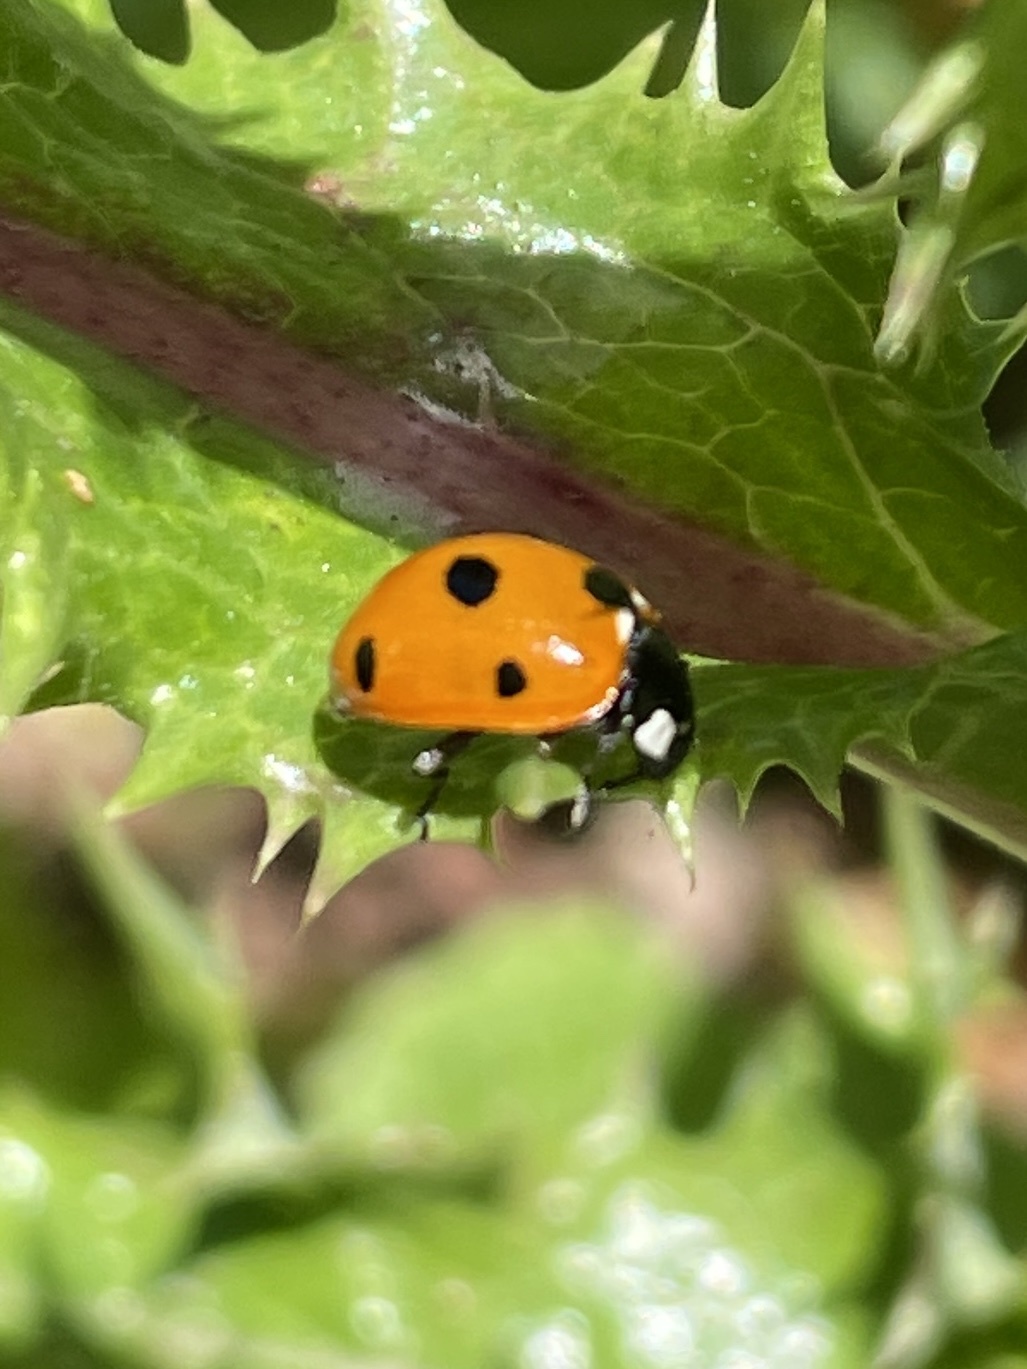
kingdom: Animalia
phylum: Arthropoda
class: Insecta
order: Coleoptera
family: Coccinellidae
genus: Coccinella
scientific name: Coccinella septempunctata
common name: Sevenspotted lady beetle
